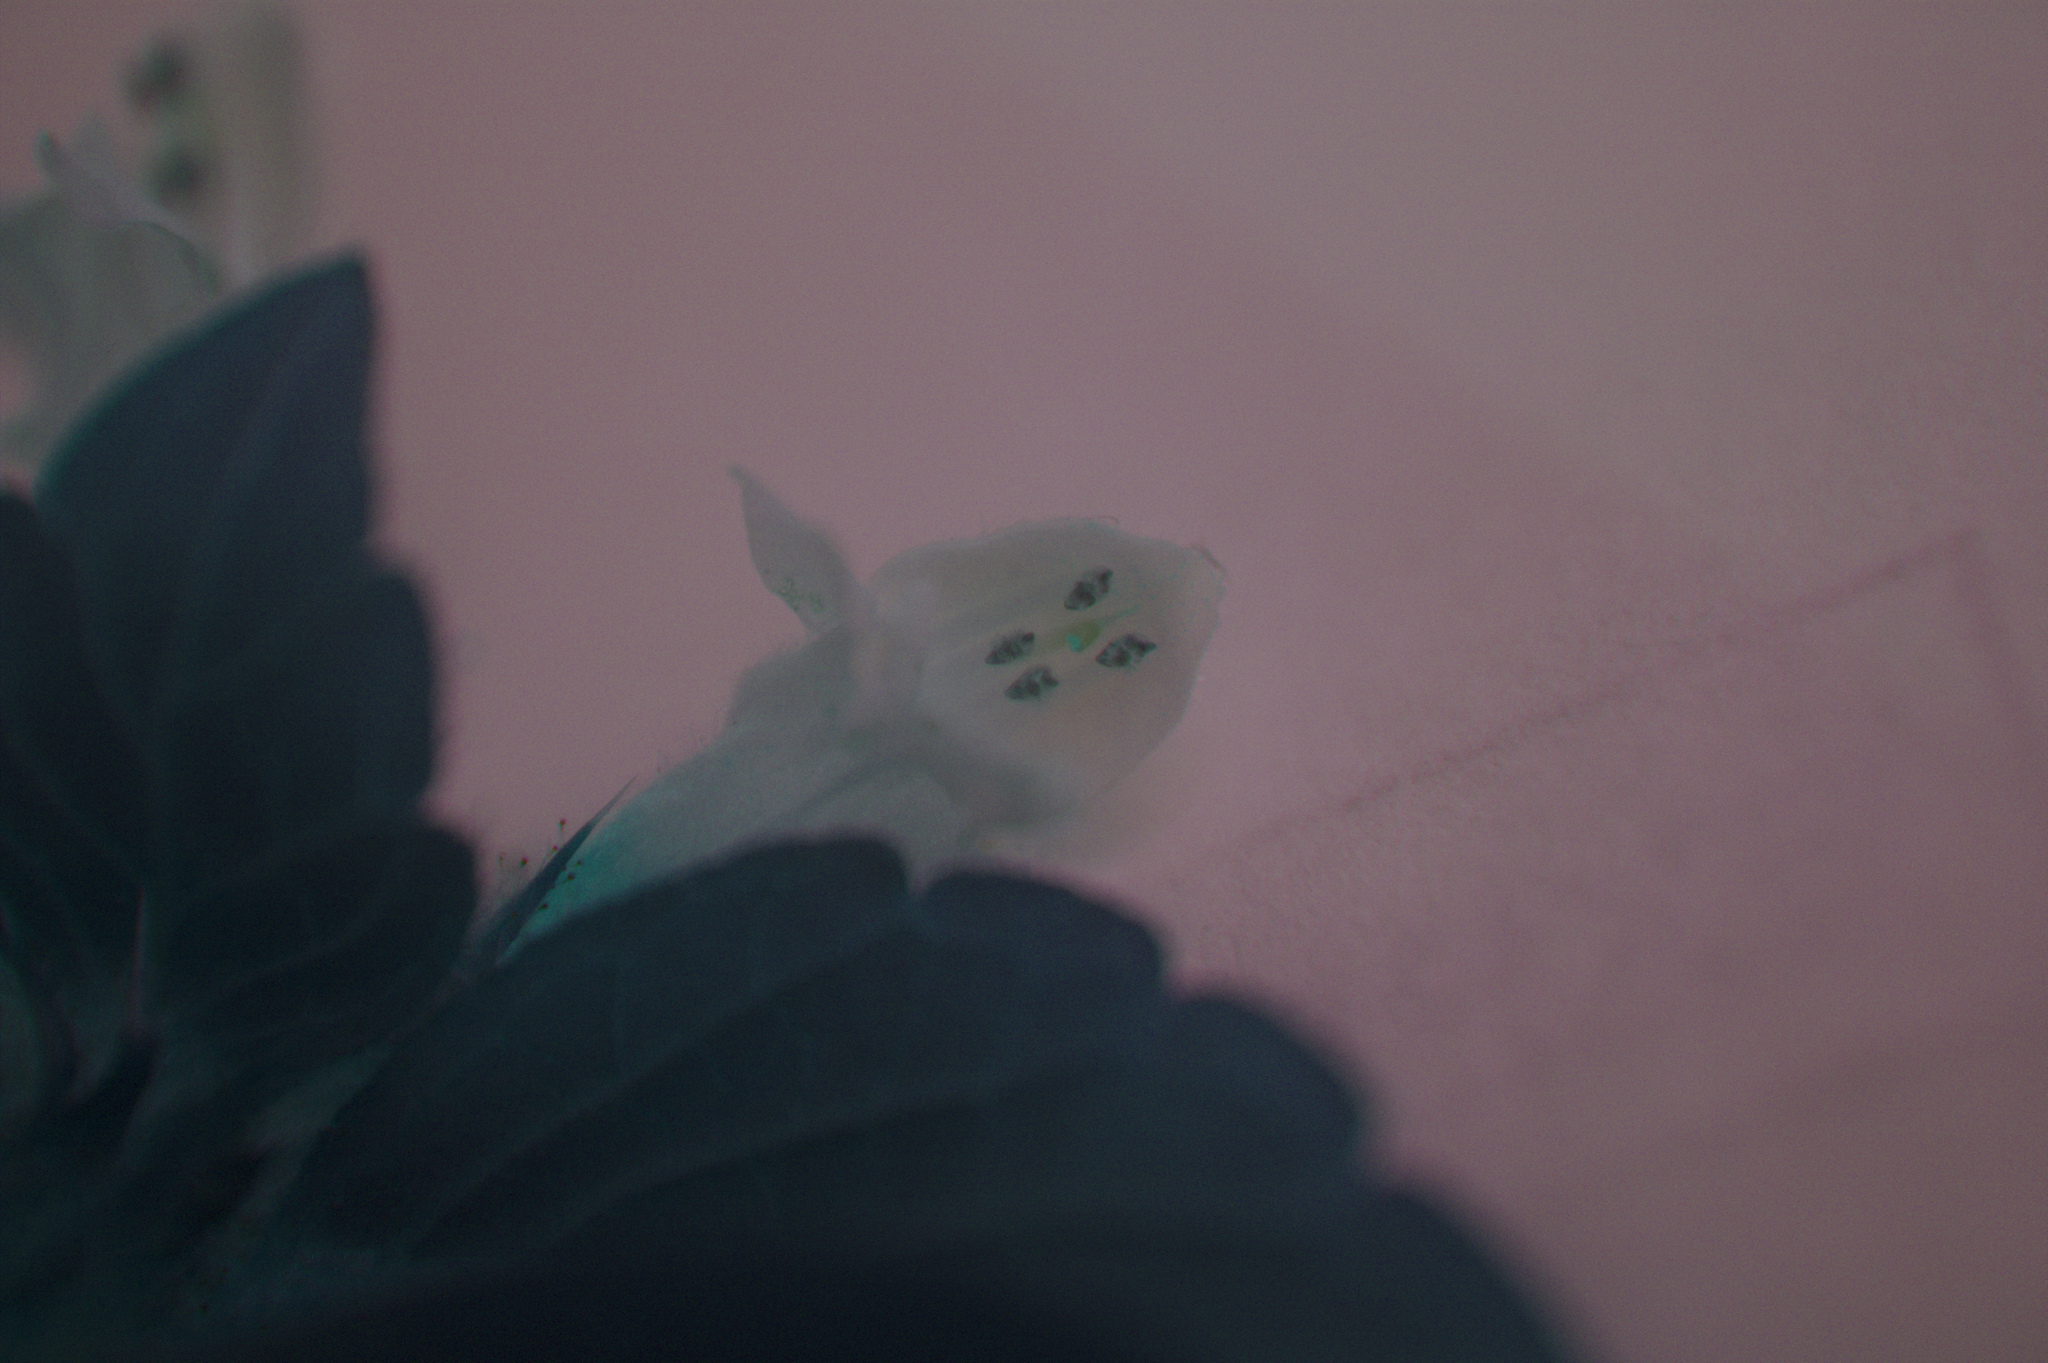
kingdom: Plantae
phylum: Tracheophyta
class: Magnoliopsida
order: Lamiales
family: Lamiaceae
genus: Galeopsis
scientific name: Galeopsis tetrahit
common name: Common hemp-nettle
